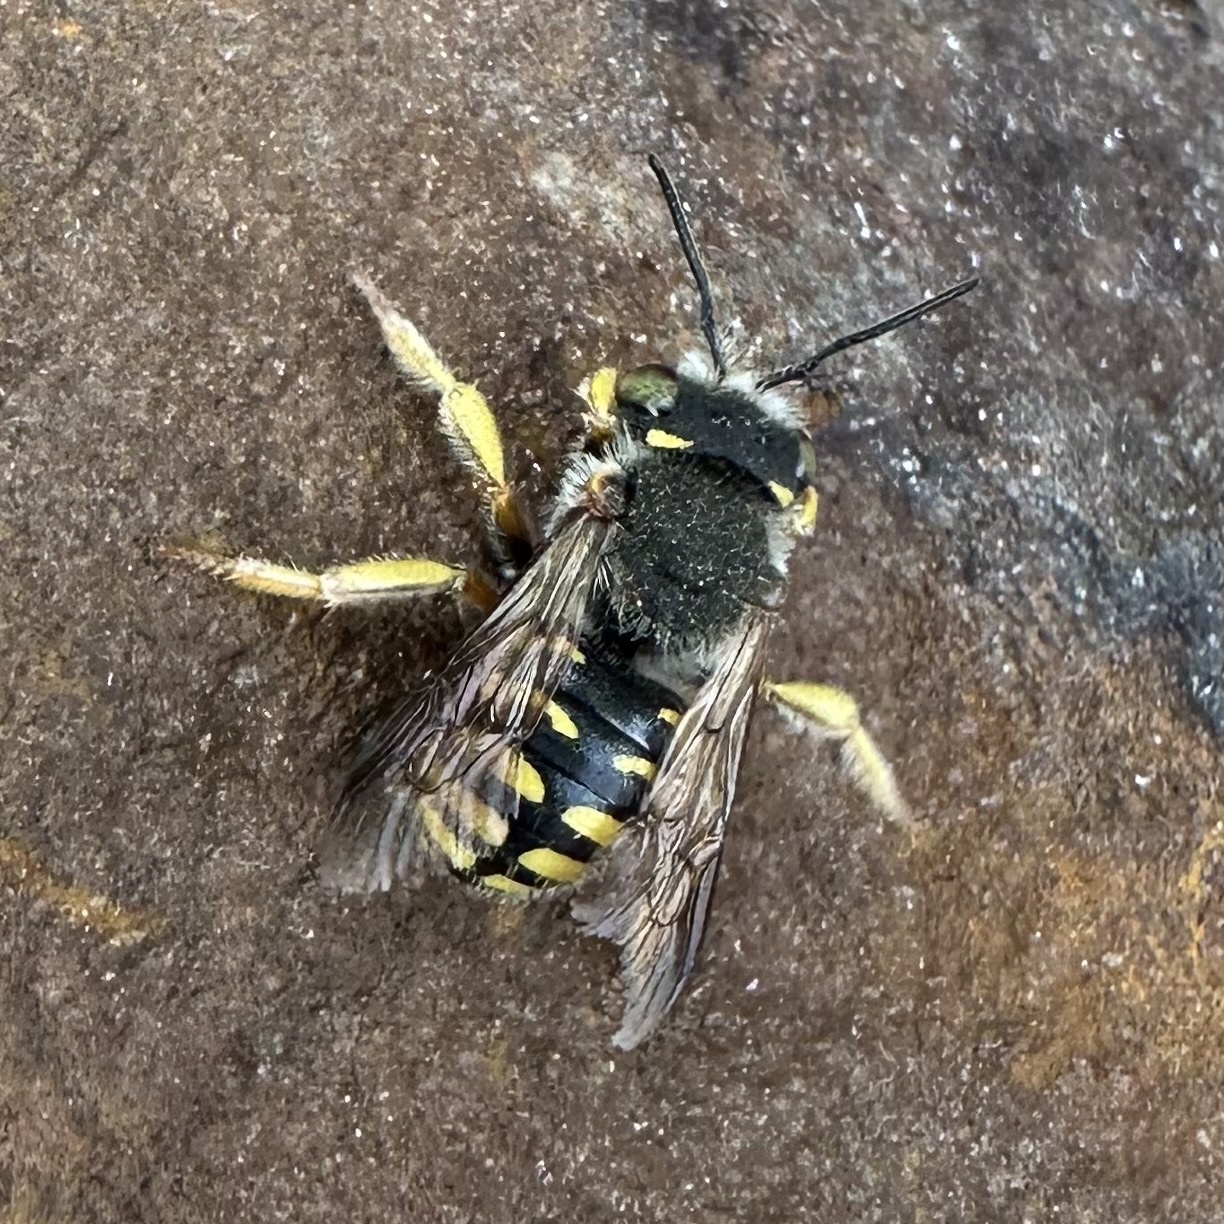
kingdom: Animalia
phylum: Arthropoda
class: Insecta
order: Hymenoptera
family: Megachilidae
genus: Anthidium
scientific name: Anthidium oblongatum
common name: Oblong wool carder bee
